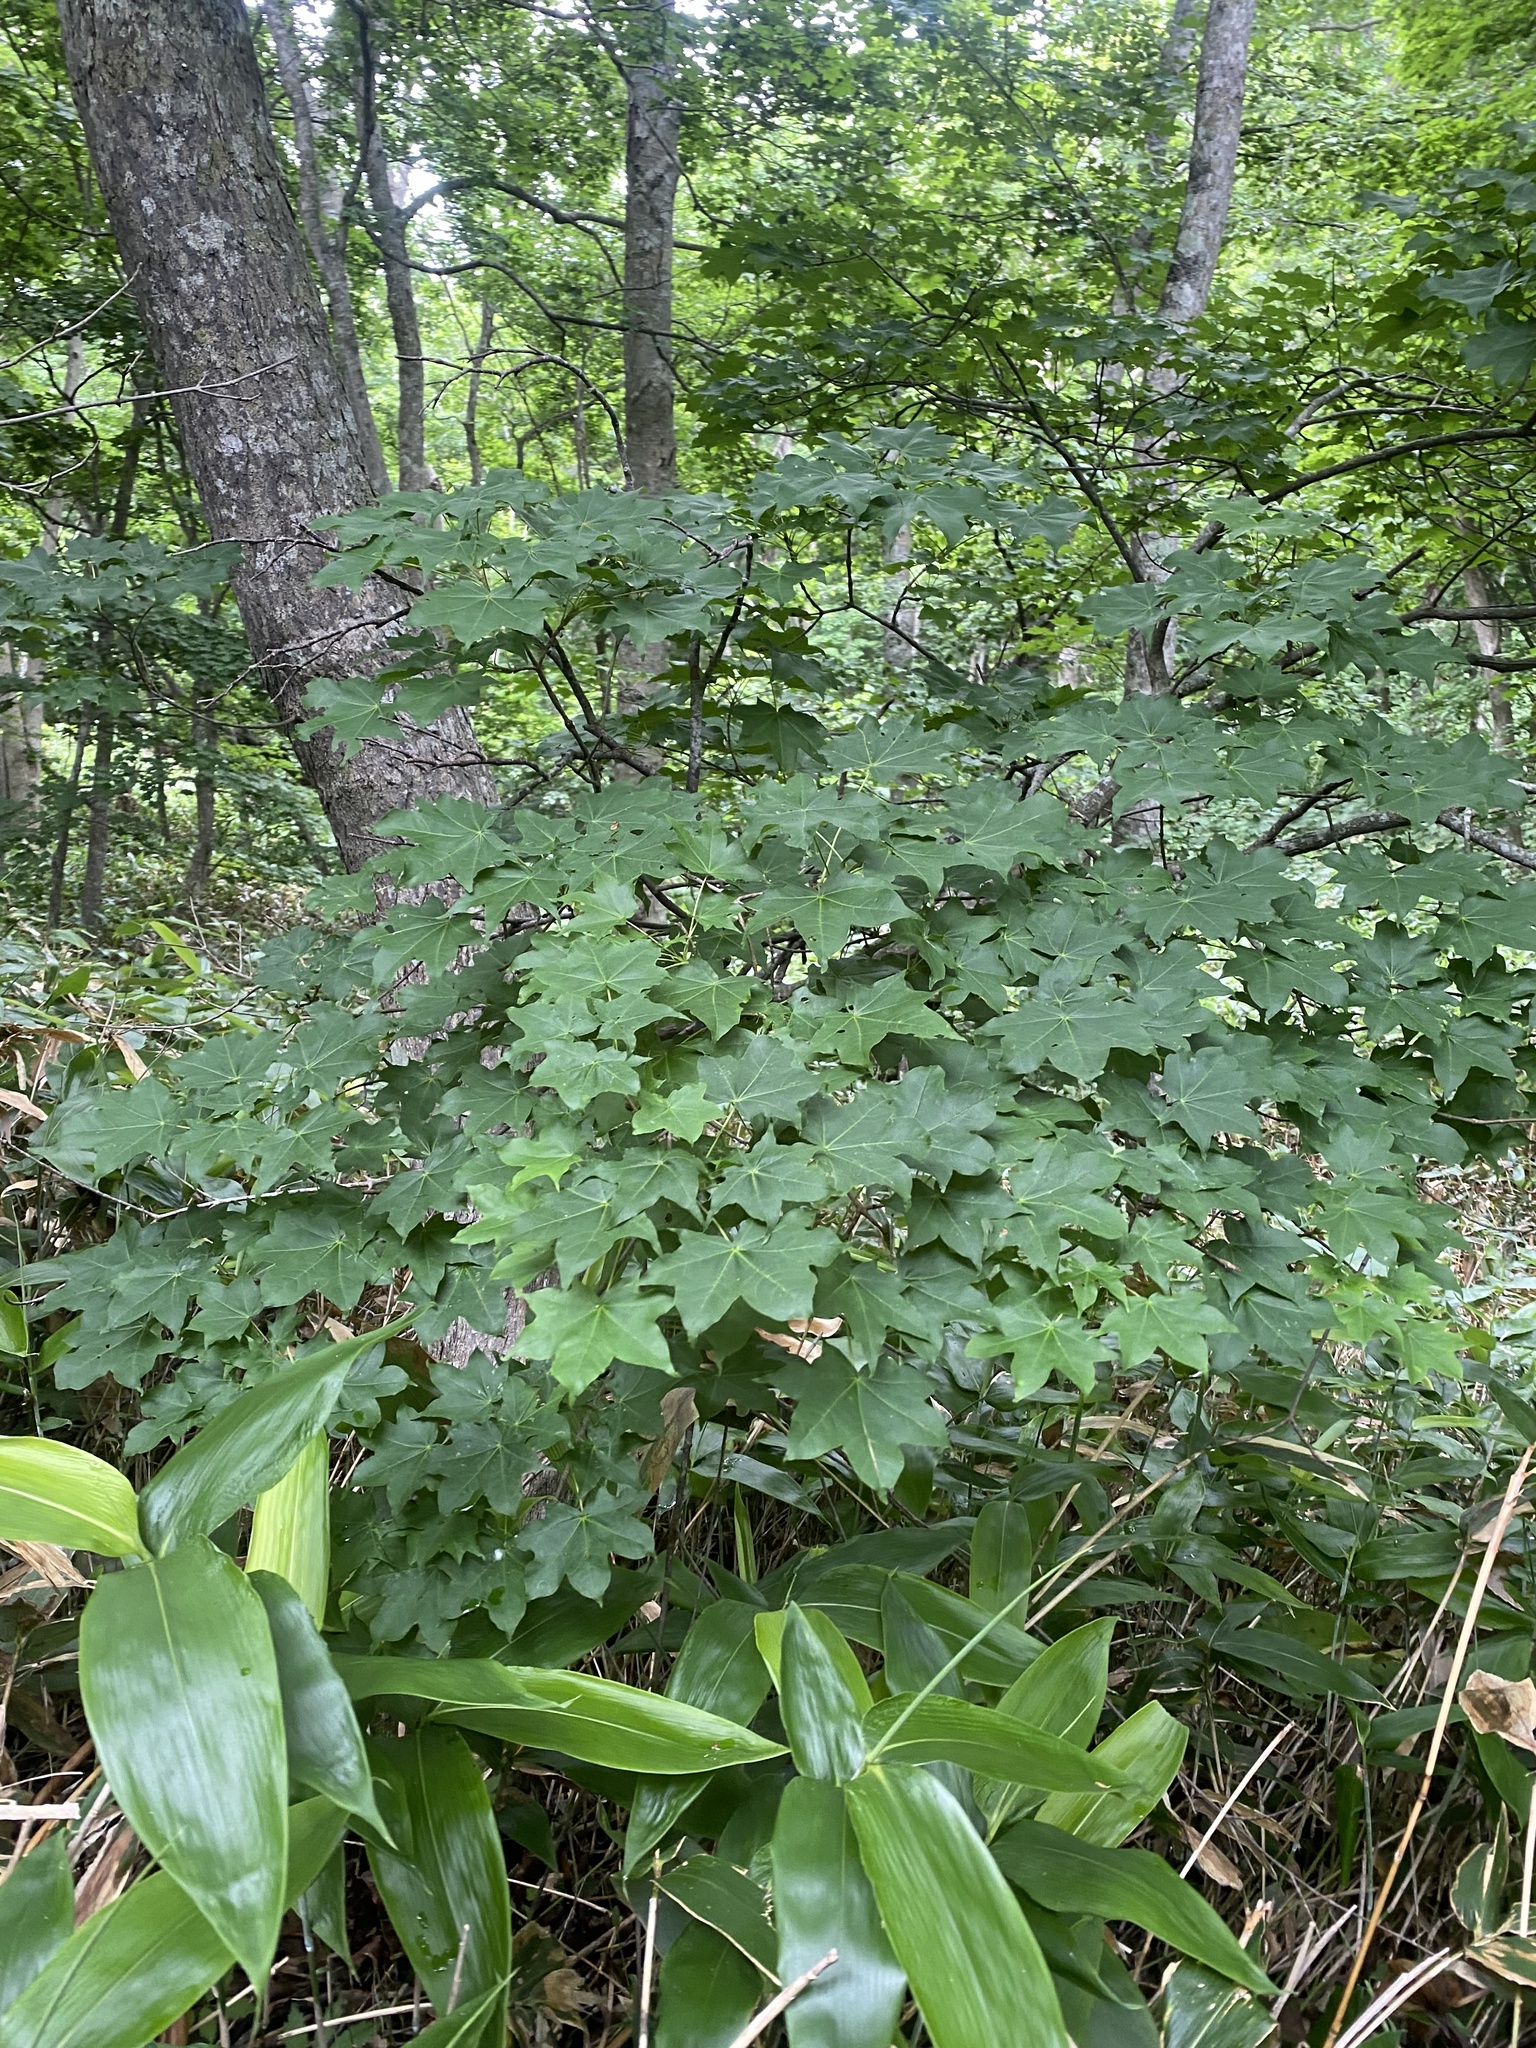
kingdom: Plantae
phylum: Tracheophyta
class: Magnoliopsida
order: Sapindales
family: Sapindaceae
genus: Acer
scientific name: Acer pictum
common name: The painted maple
